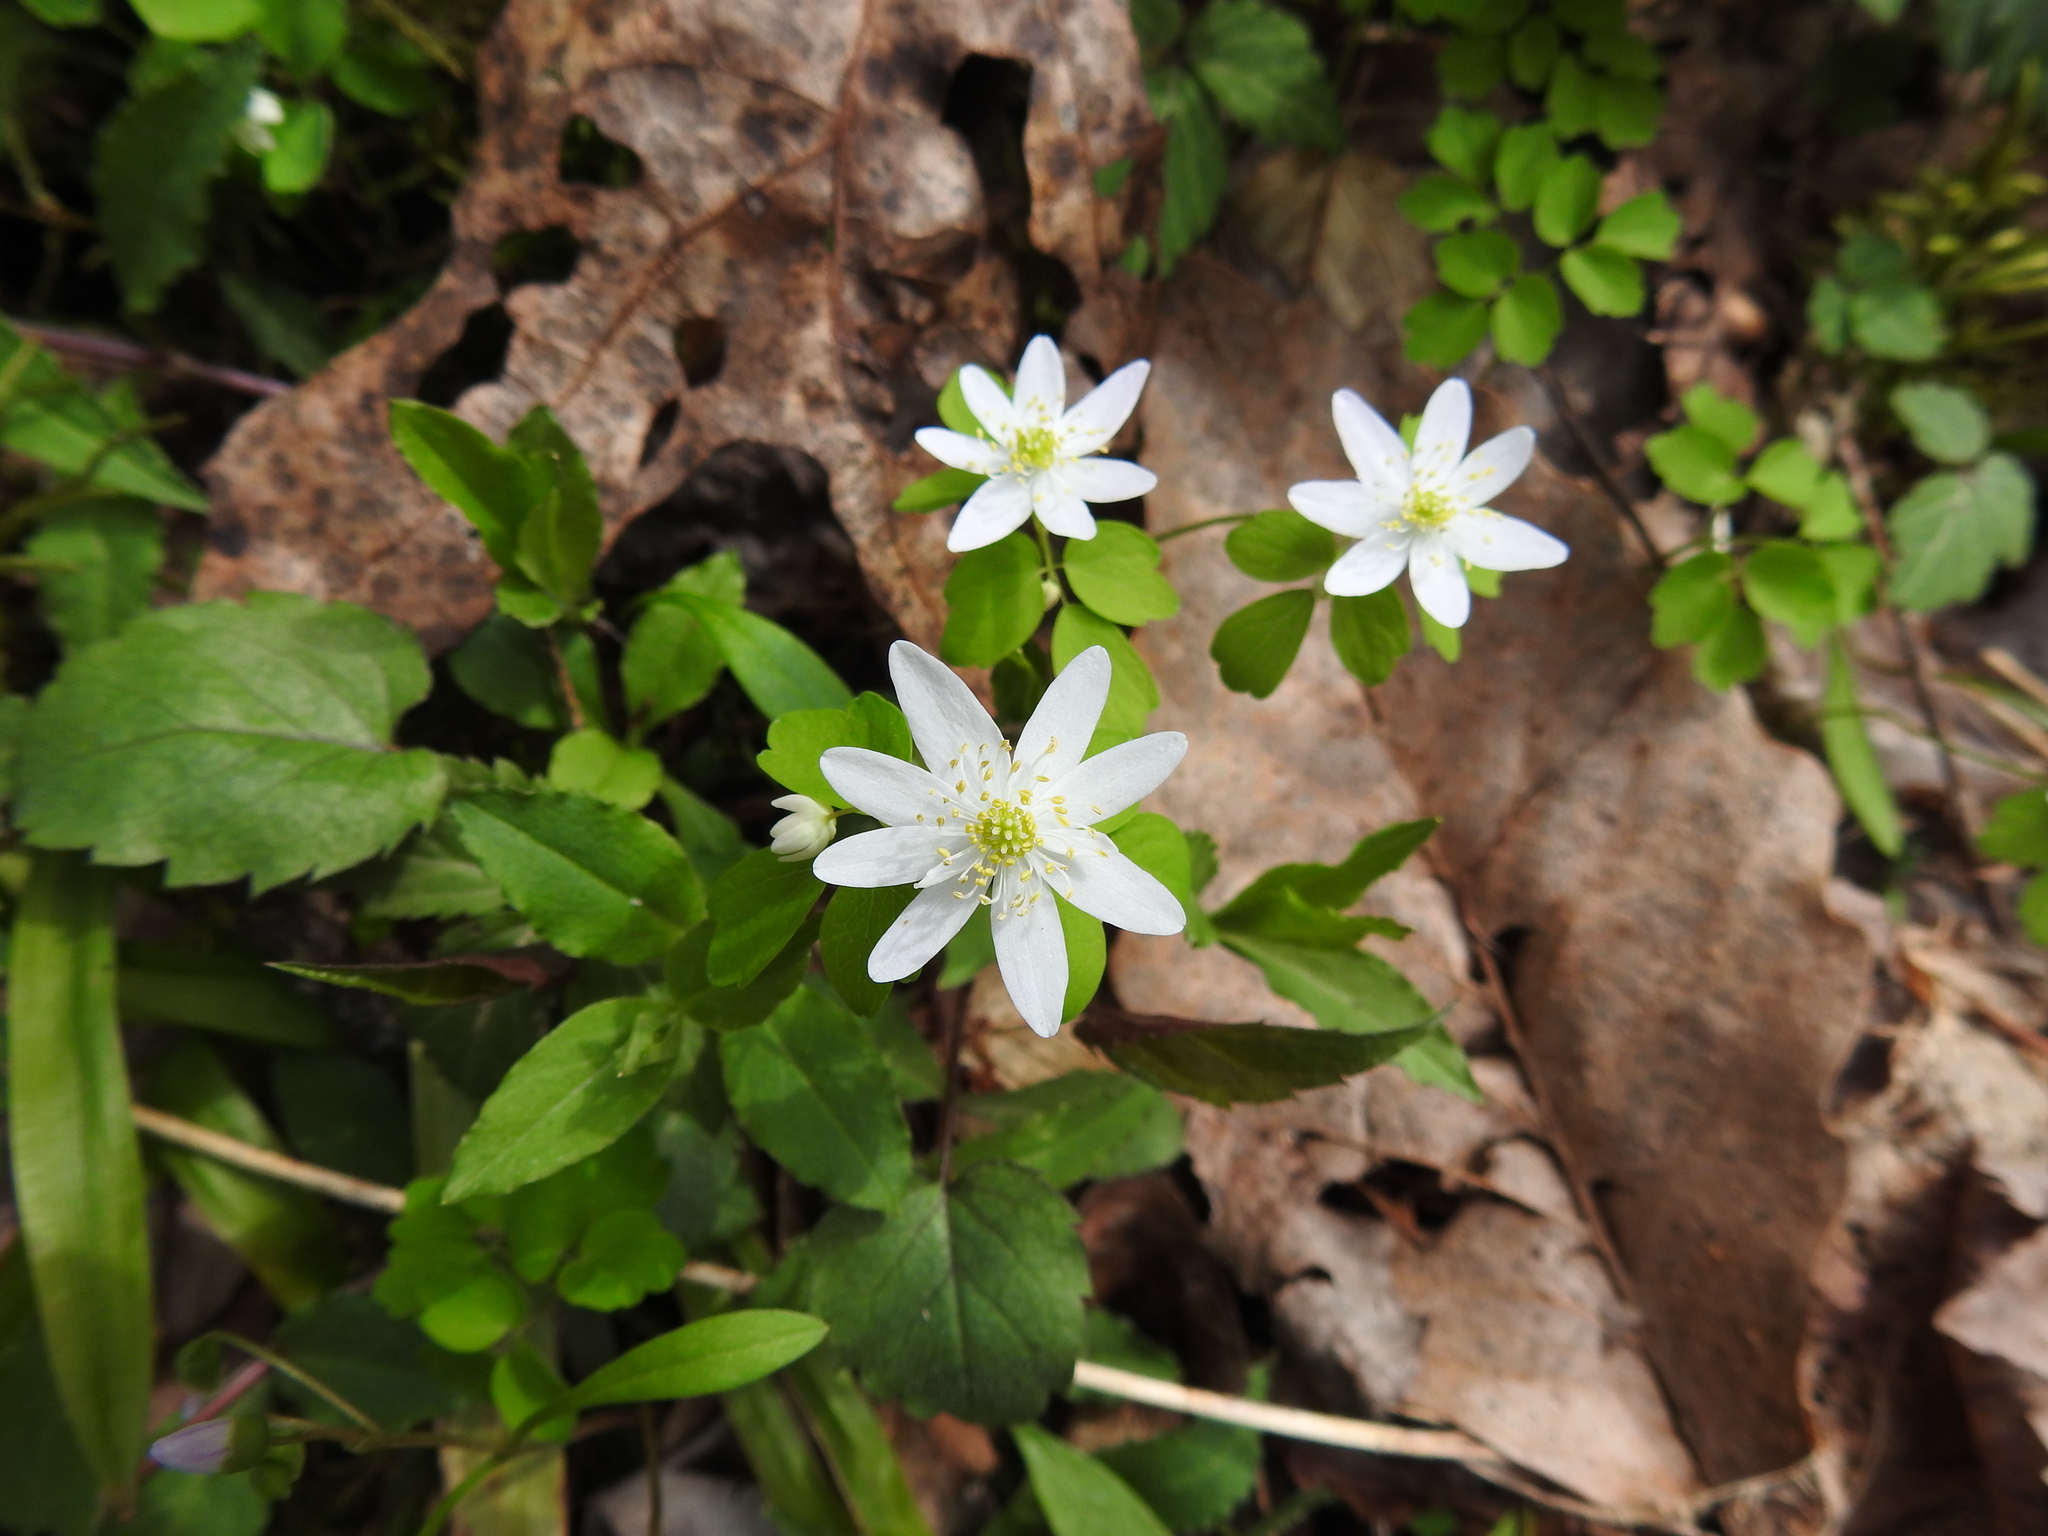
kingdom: Plantae
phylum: Tracheophyta
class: Magnoliopsida
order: Ranunculales
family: Ranunculaceae
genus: Thalictrum
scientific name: Thalictrum thalictroides
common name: Rue-anemone
